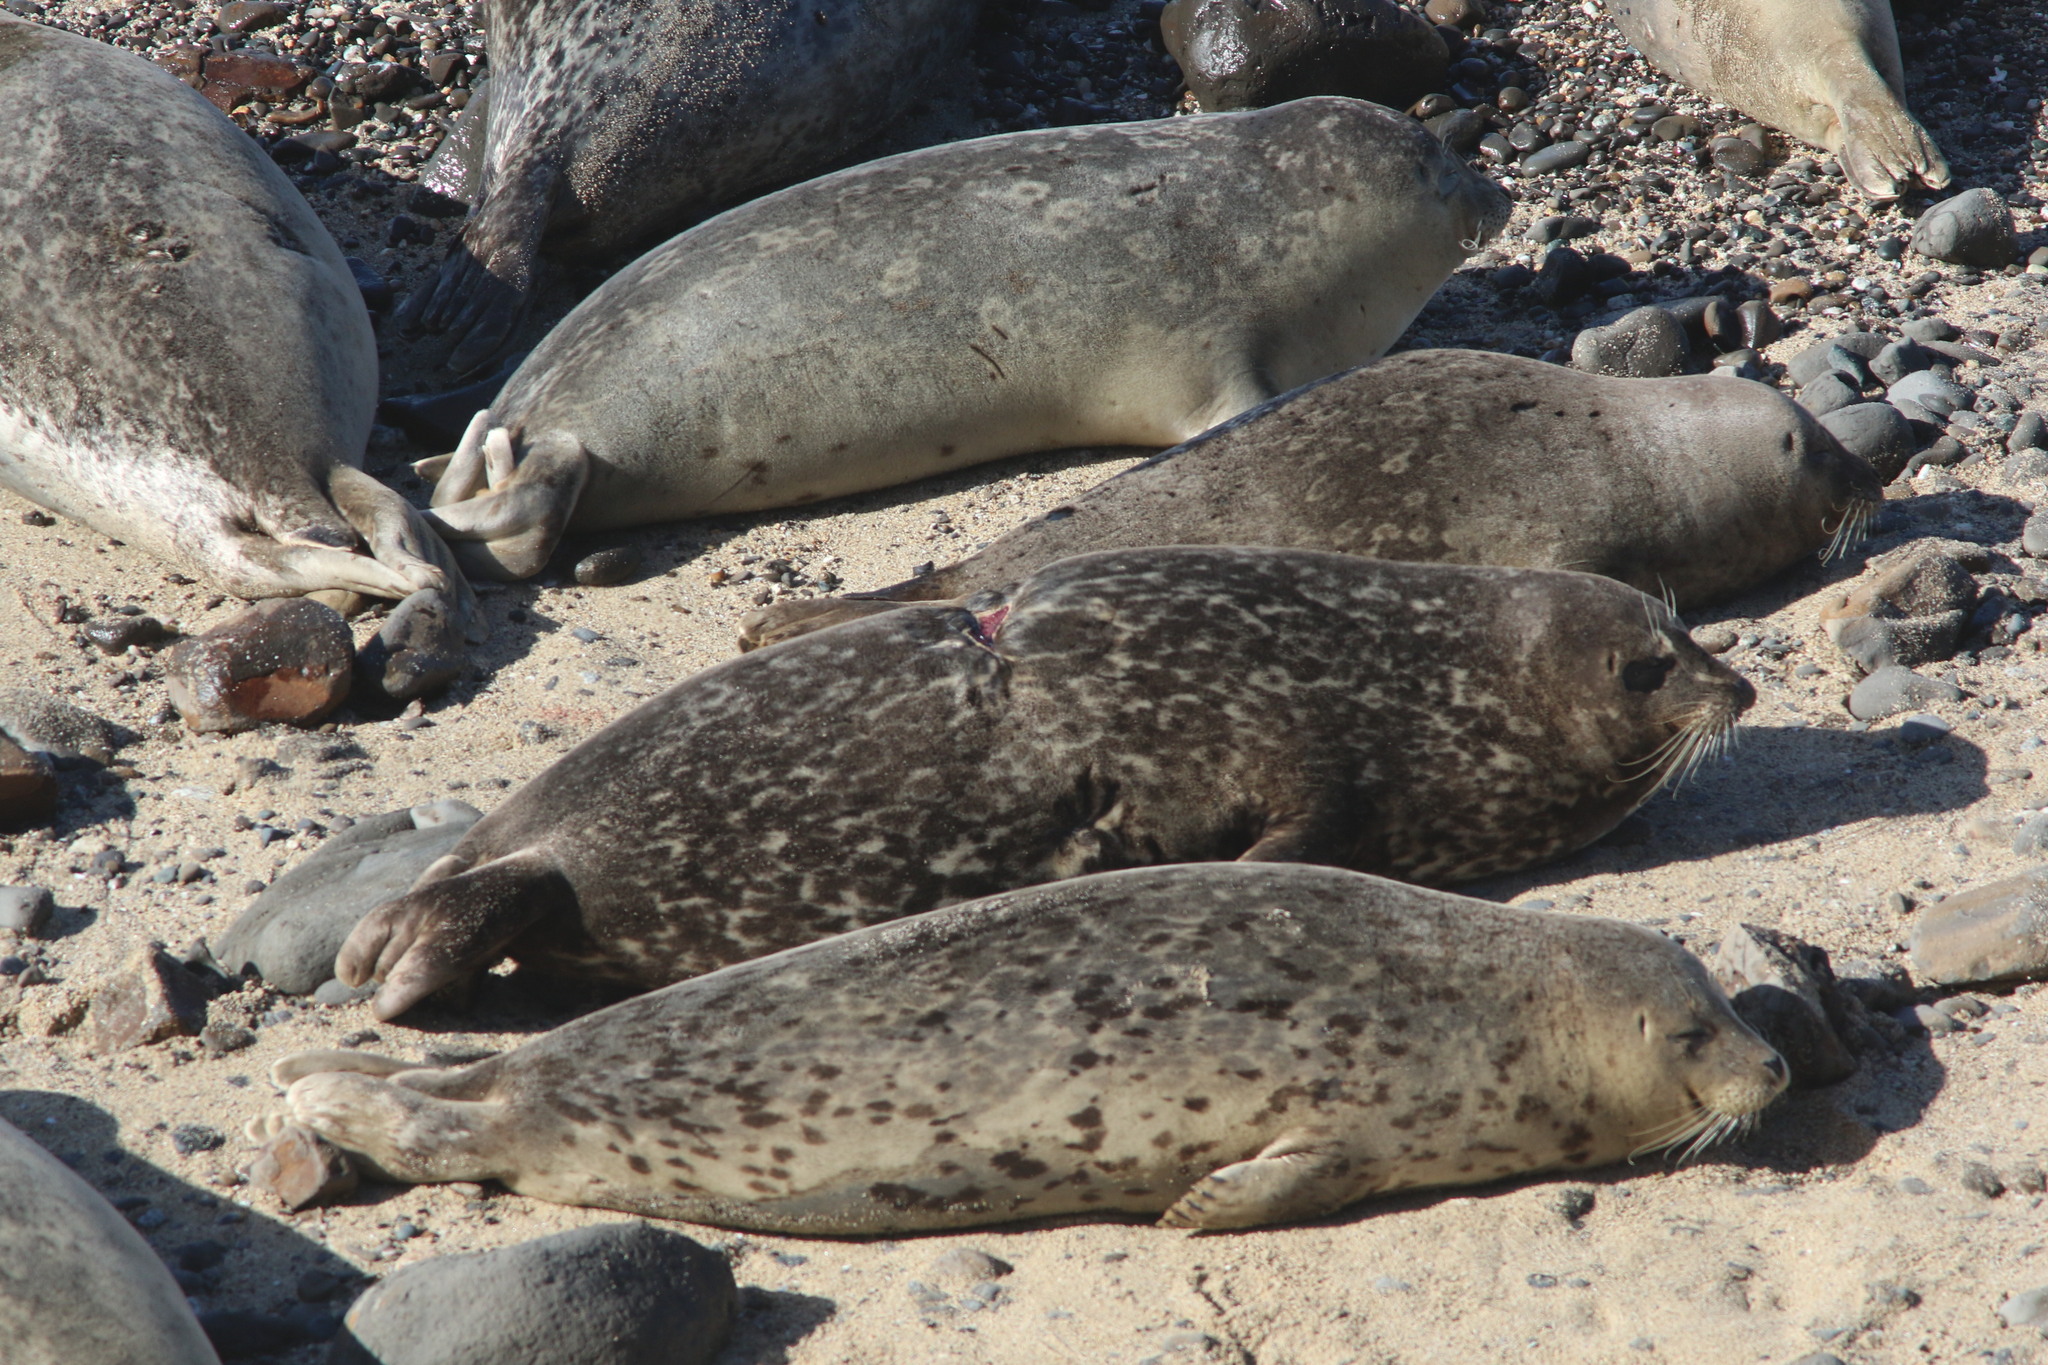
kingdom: Animalia
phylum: Chordata
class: Mammalia
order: Carnivora
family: Phocidae
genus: Phoca
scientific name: Phoca vitulina
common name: Harbor seal
